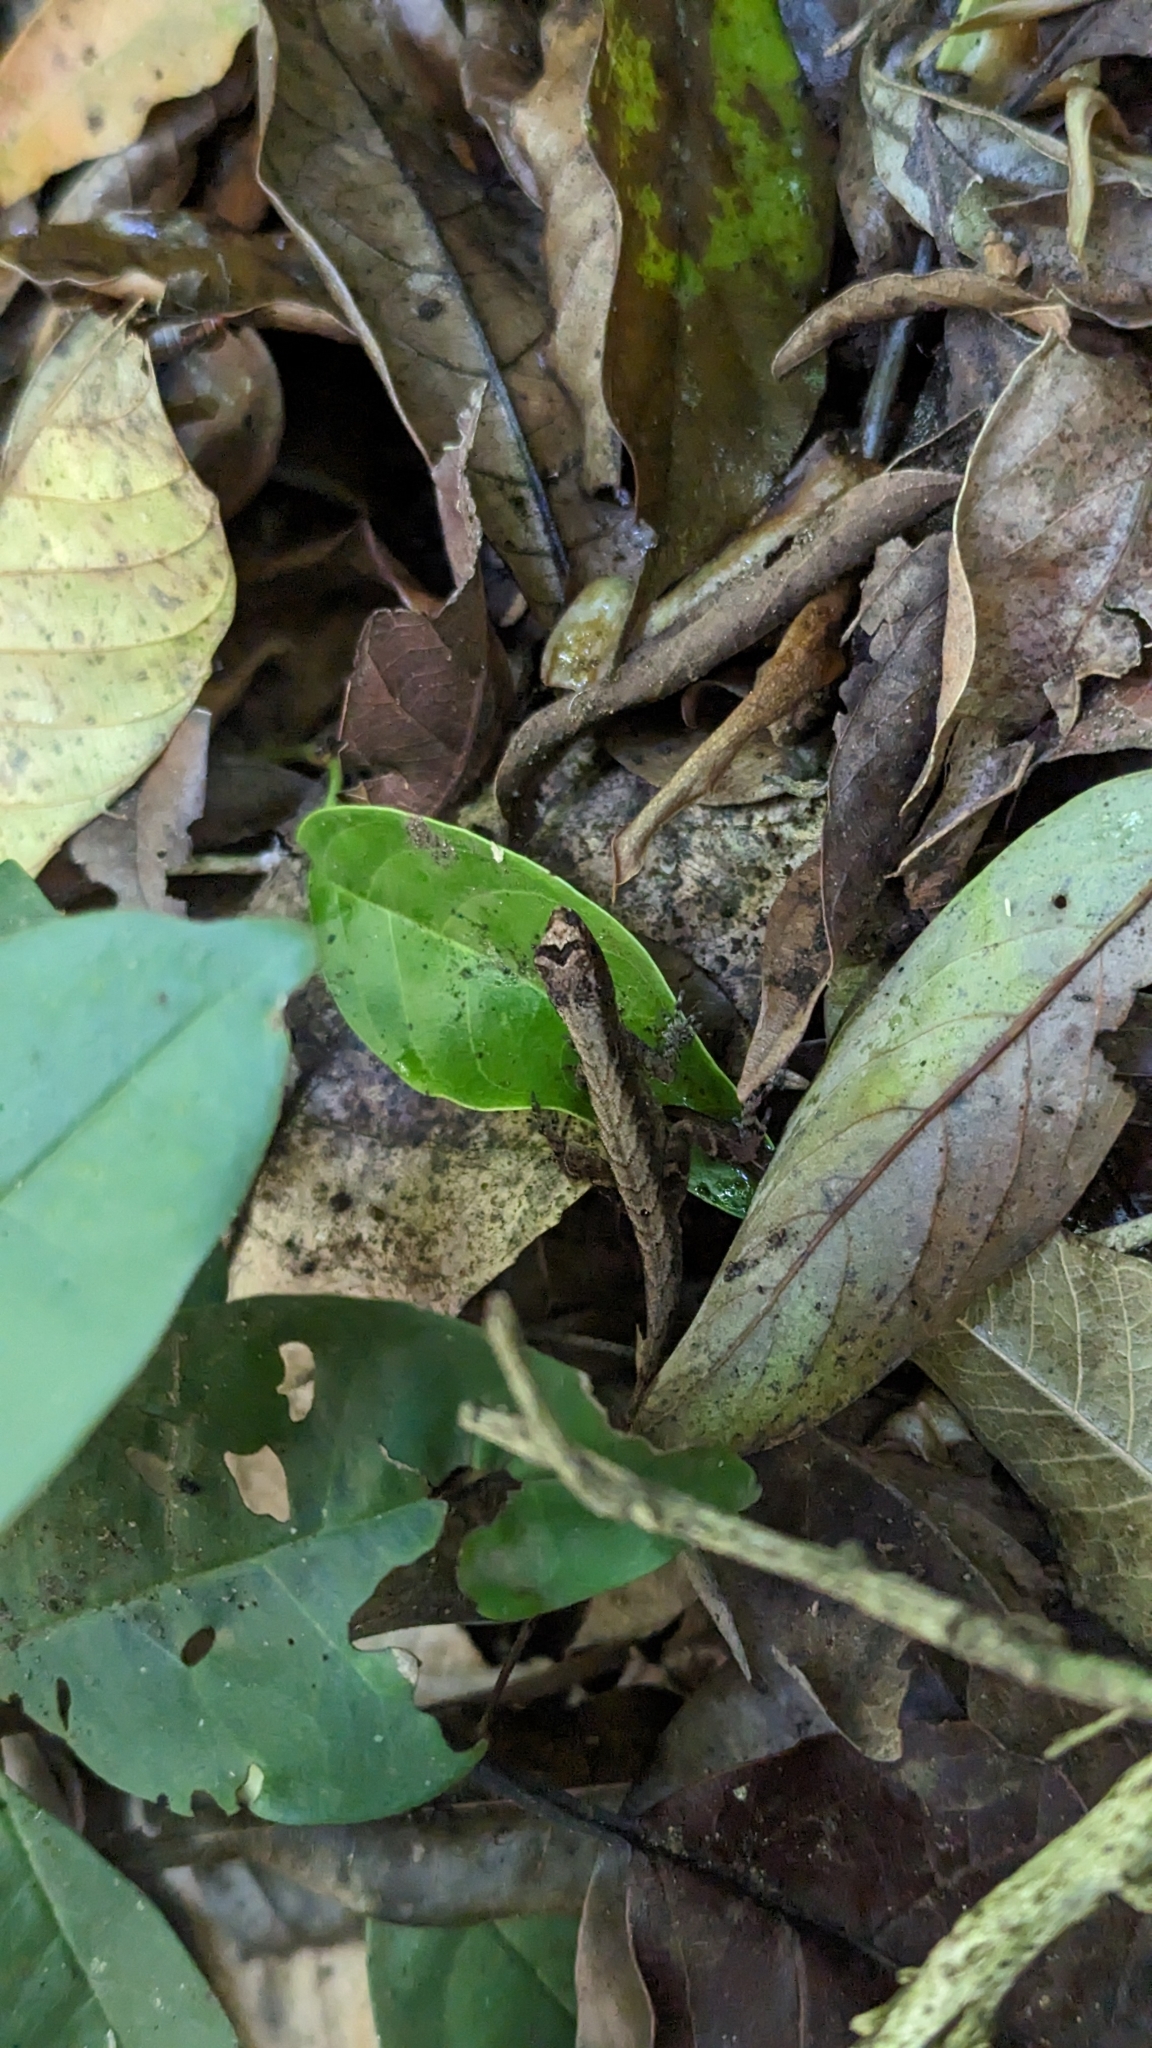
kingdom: Animalia
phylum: Chordata
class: Squamata
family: Dactyloidae
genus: Anolis
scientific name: Anolis humilis
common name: Humble anole
